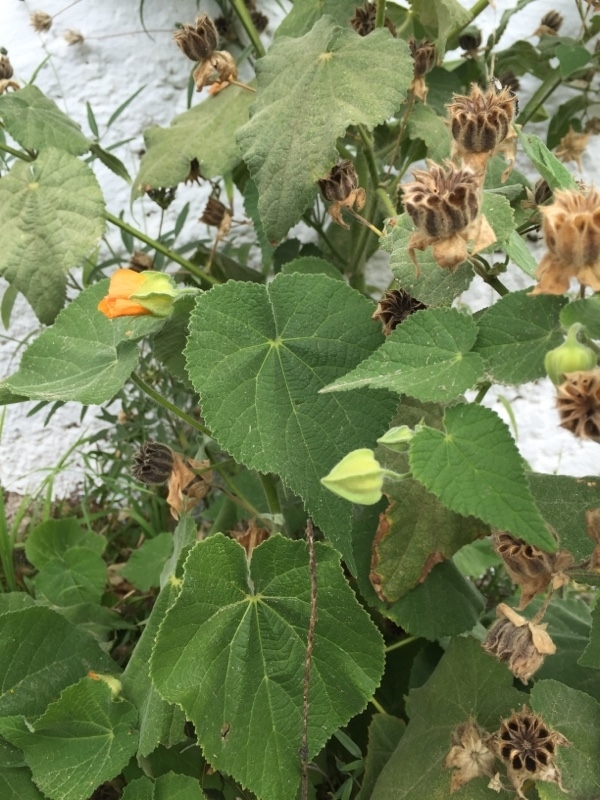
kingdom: Plantae
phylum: Tracheophyta
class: Magnoliopsida
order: Malvales
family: Malvaceae
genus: Abutilon
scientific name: Abutilon grandifolium
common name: Hairy abutilon
